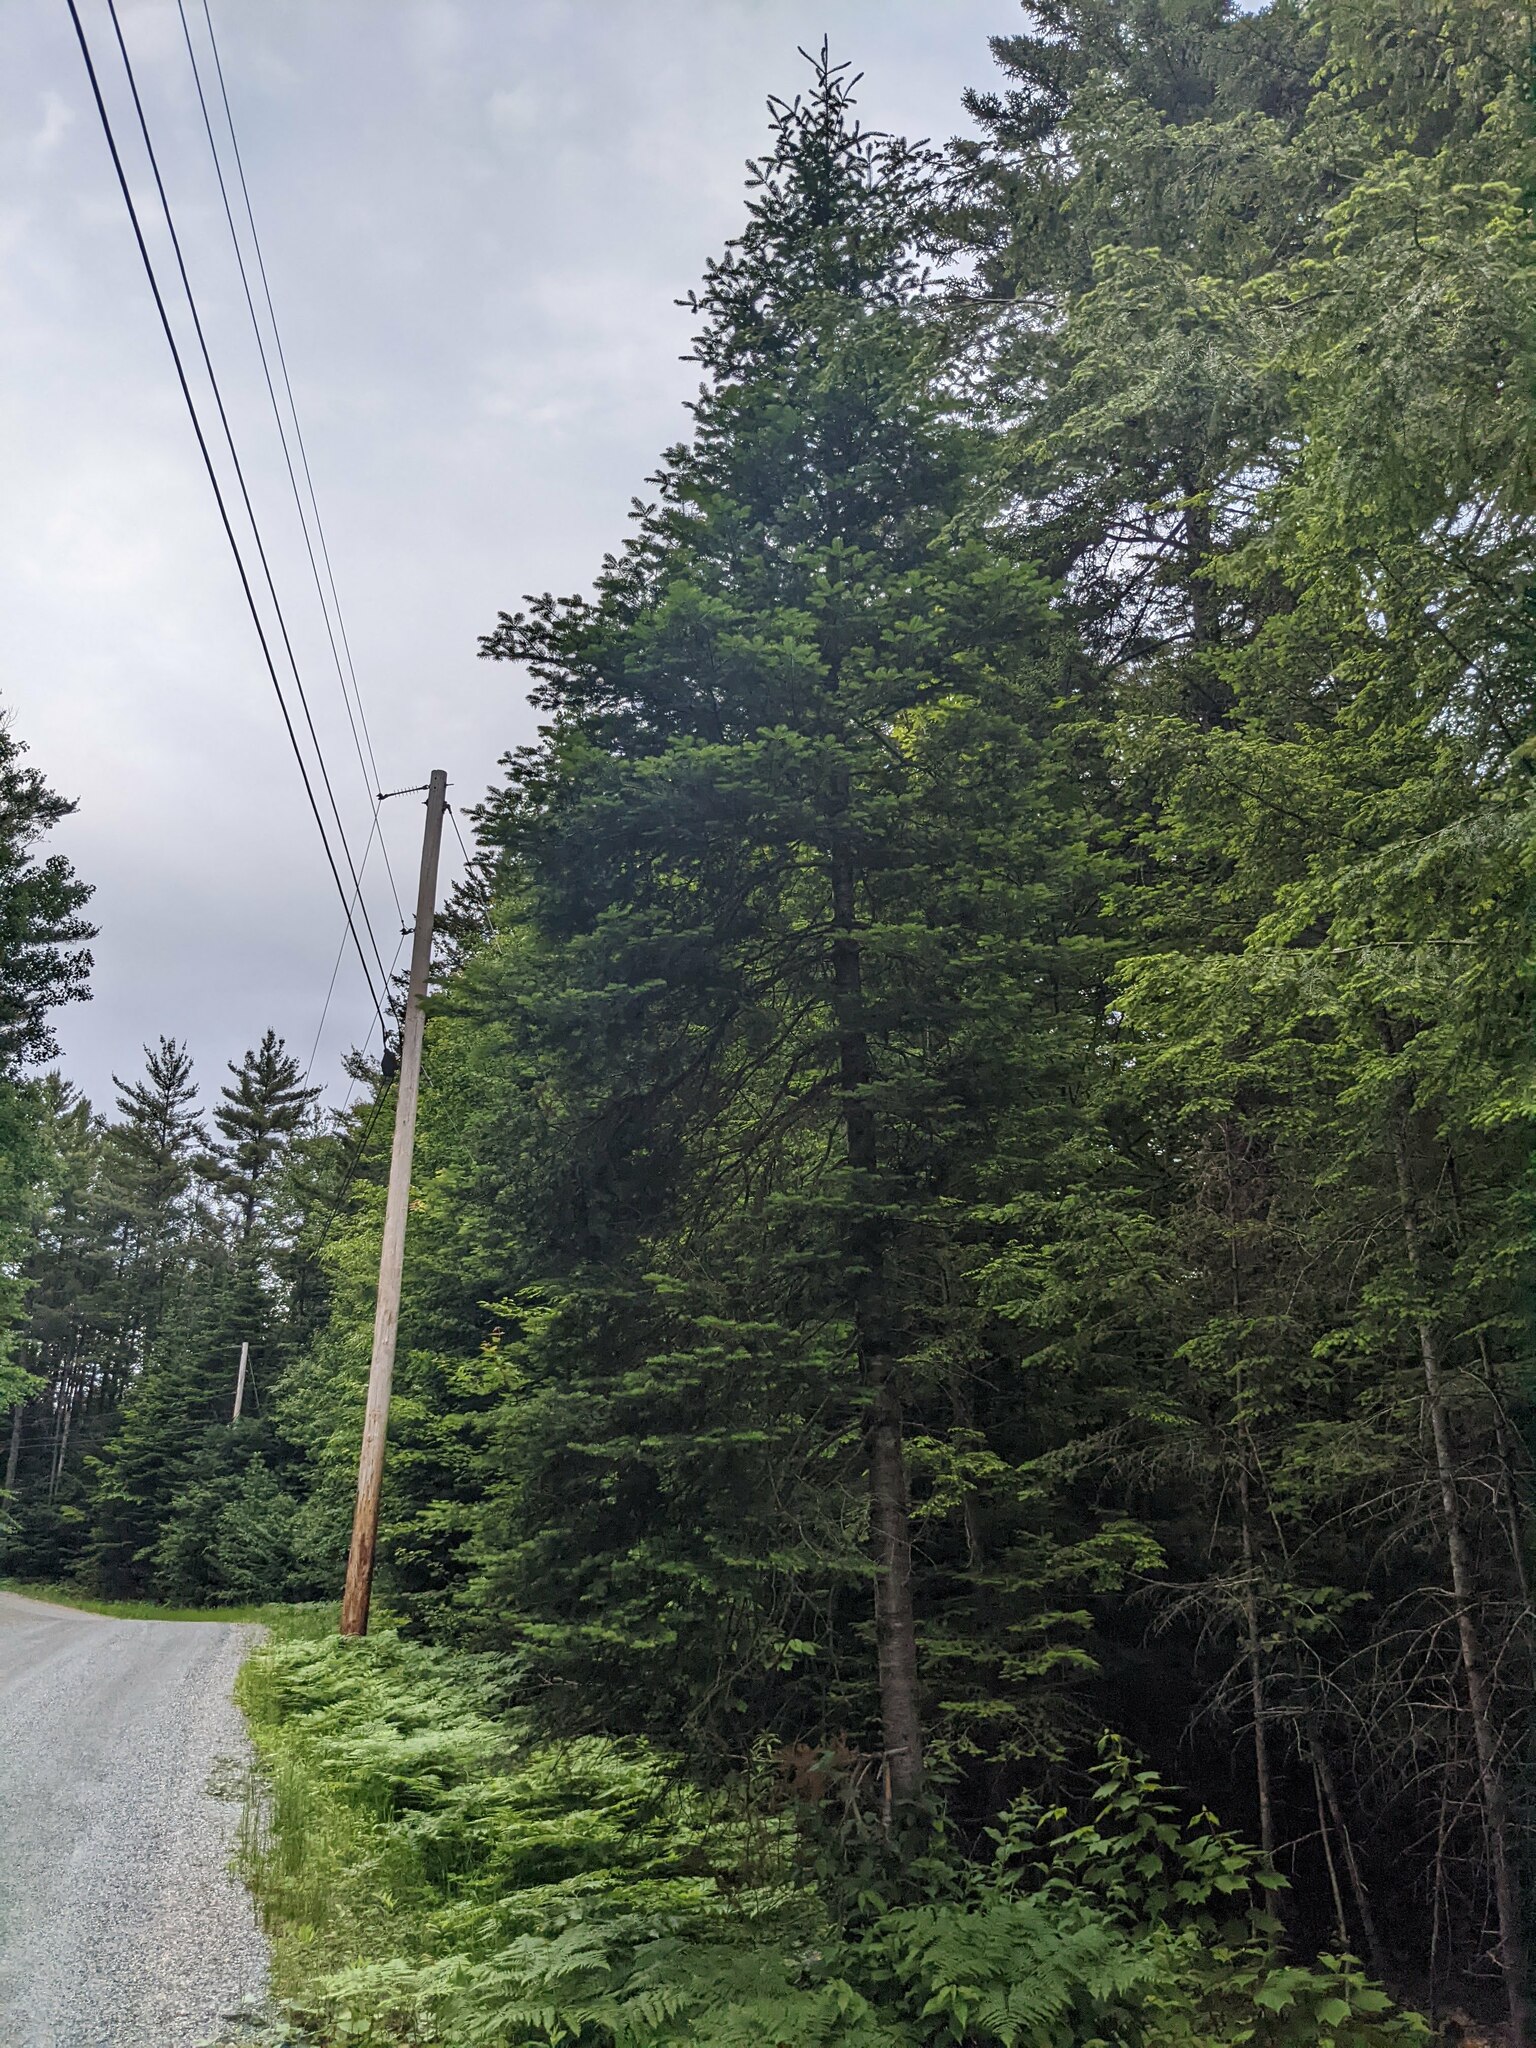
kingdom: Plantae
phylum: Tracheophyta
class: Pinopsida
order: Pinales
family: Pinaceae
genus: Abies
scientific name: Abies balsamea
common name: Balsam fir
